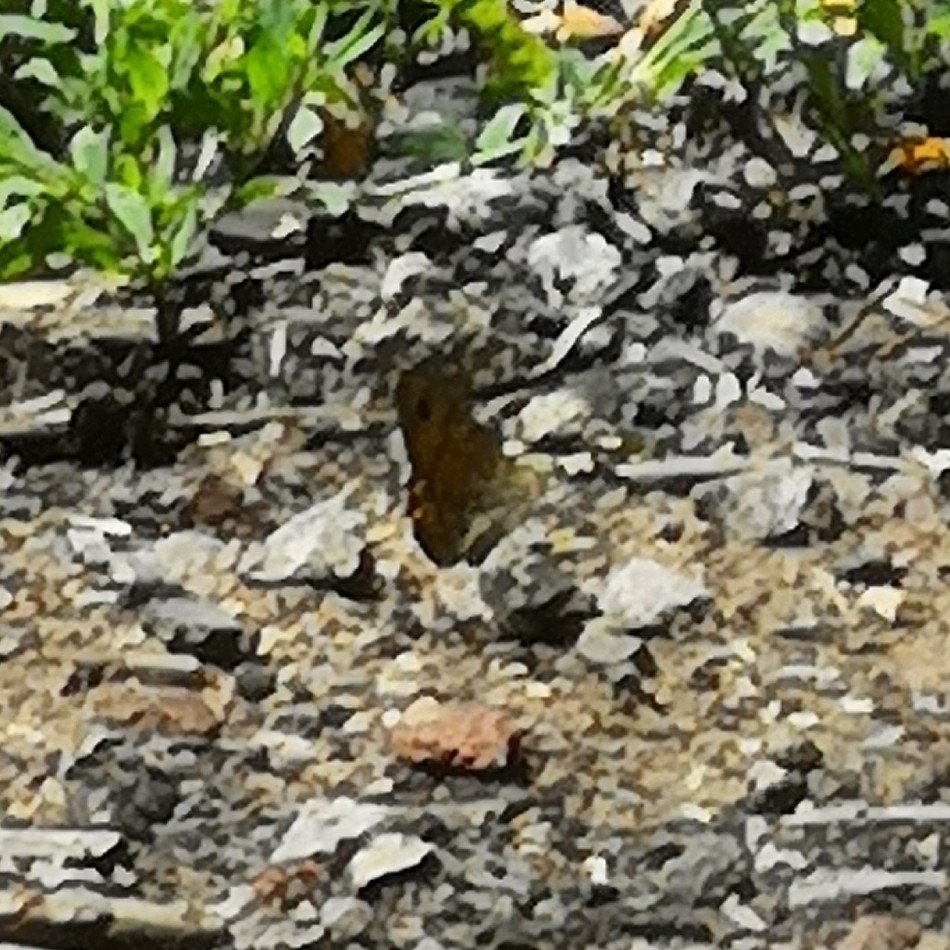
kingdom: Animalia
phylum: Arthropoda
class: Insecta
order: Lepidoptera
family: Nymphalidae
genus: Pararge
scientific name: Pararge Lasiommata megera
